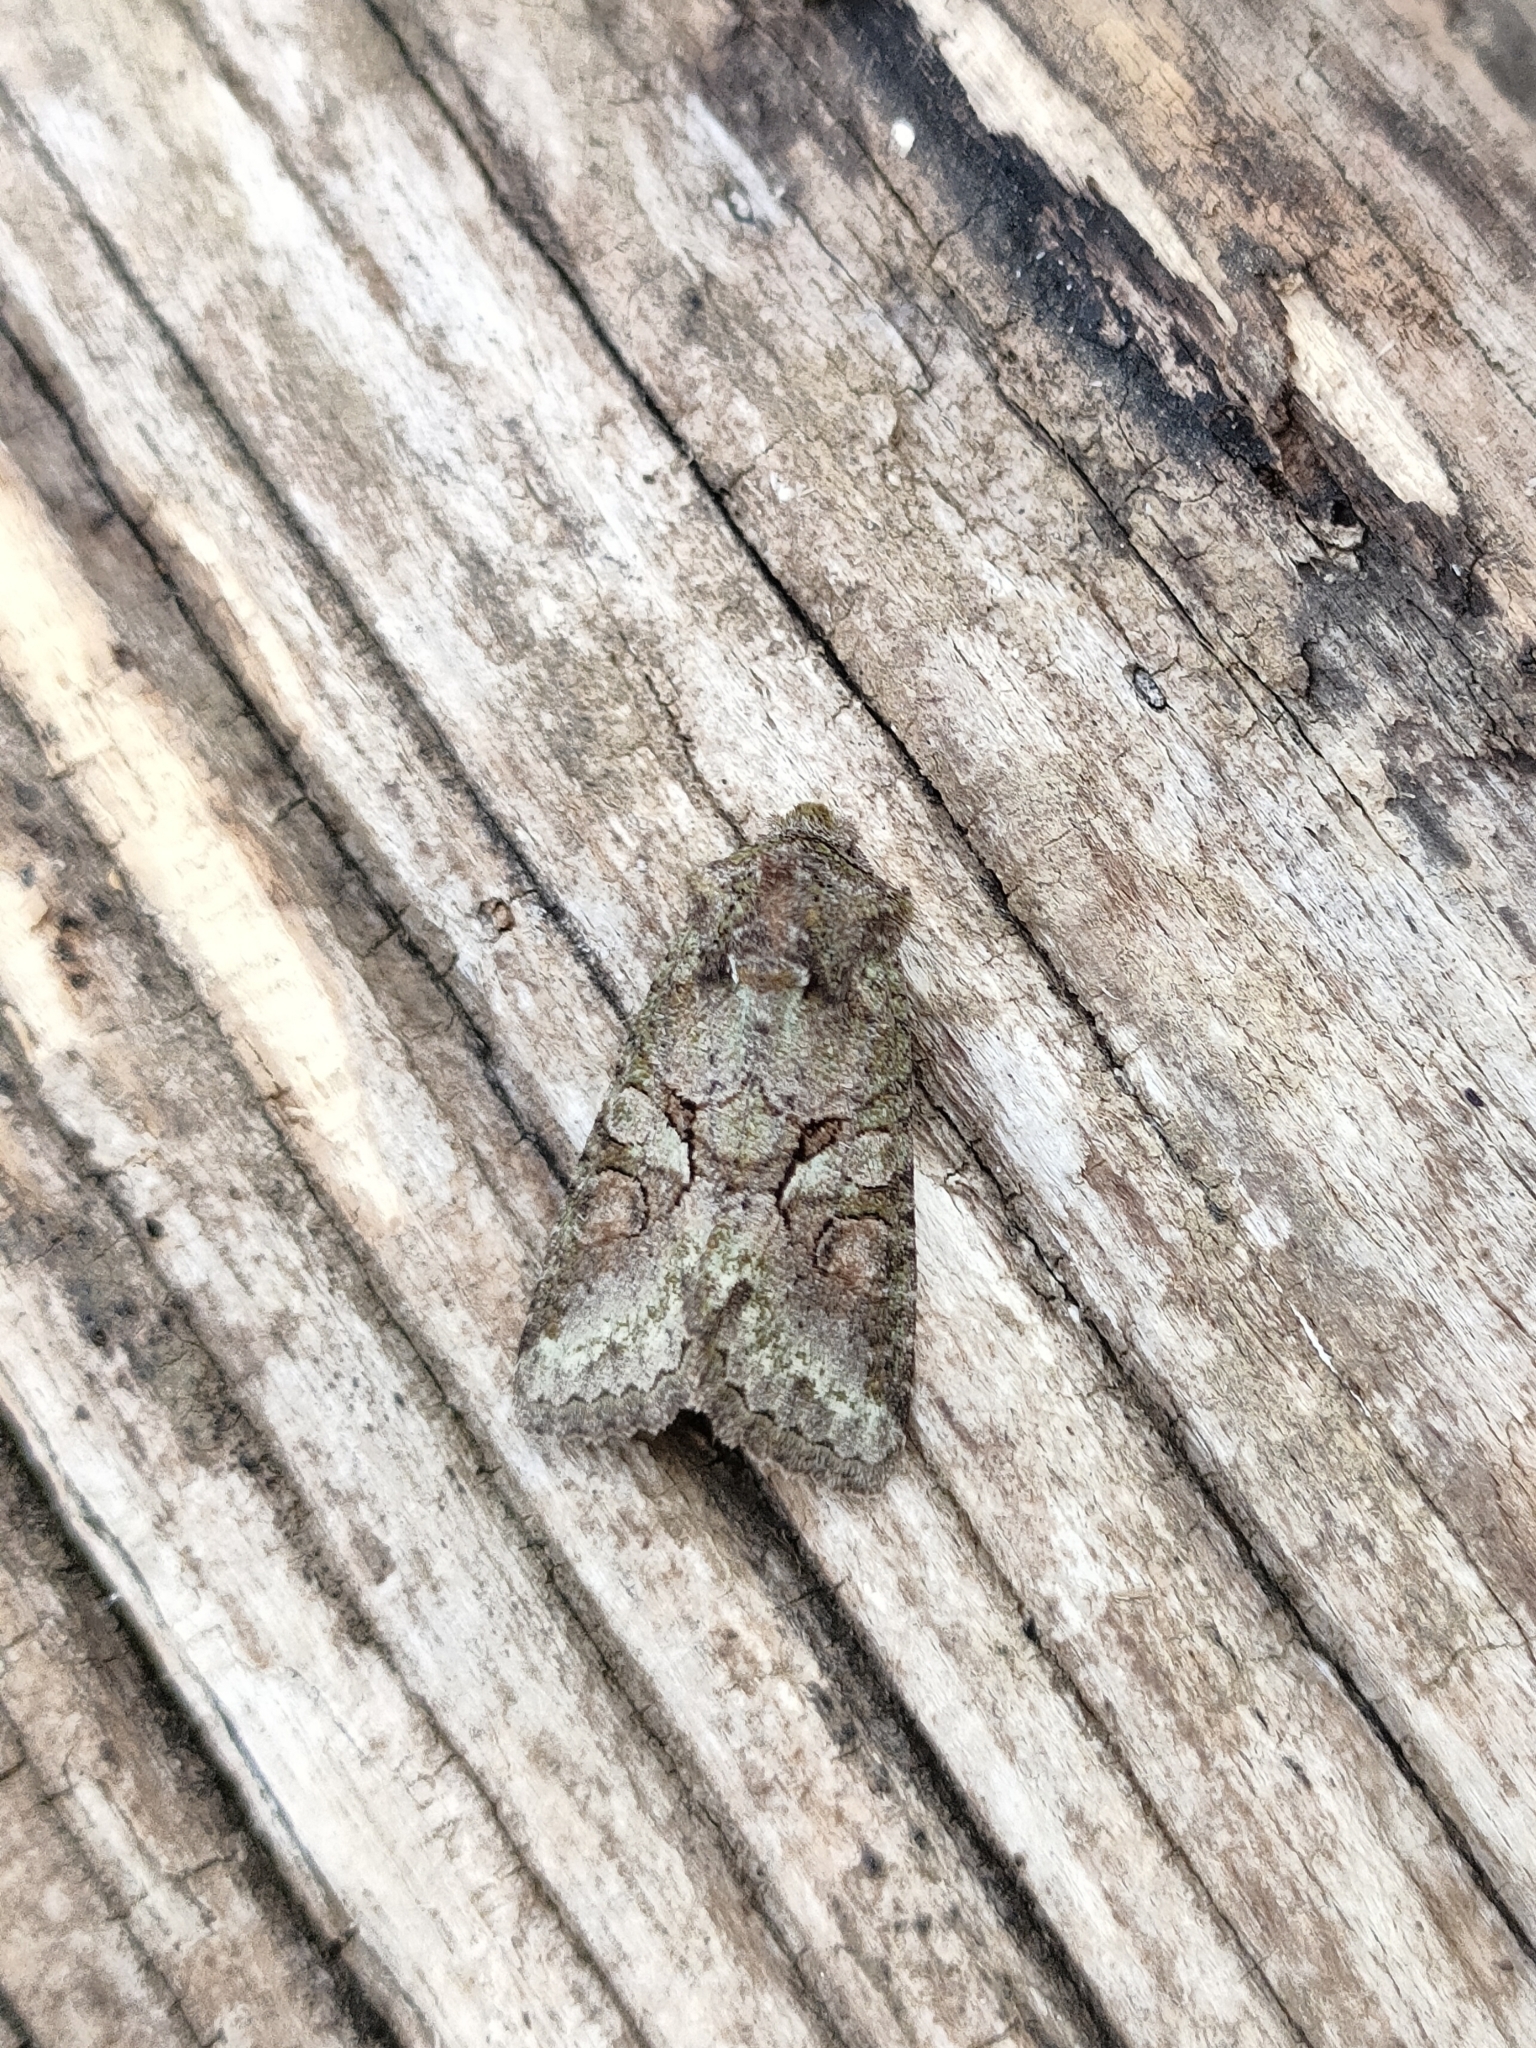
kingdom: Animalia
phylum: Arthropoda
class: Insecta
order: Lepidoptera
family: Noctuidae
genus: Dryobotodes
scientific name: Dryobotodes roboris
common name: Southern brindled green
